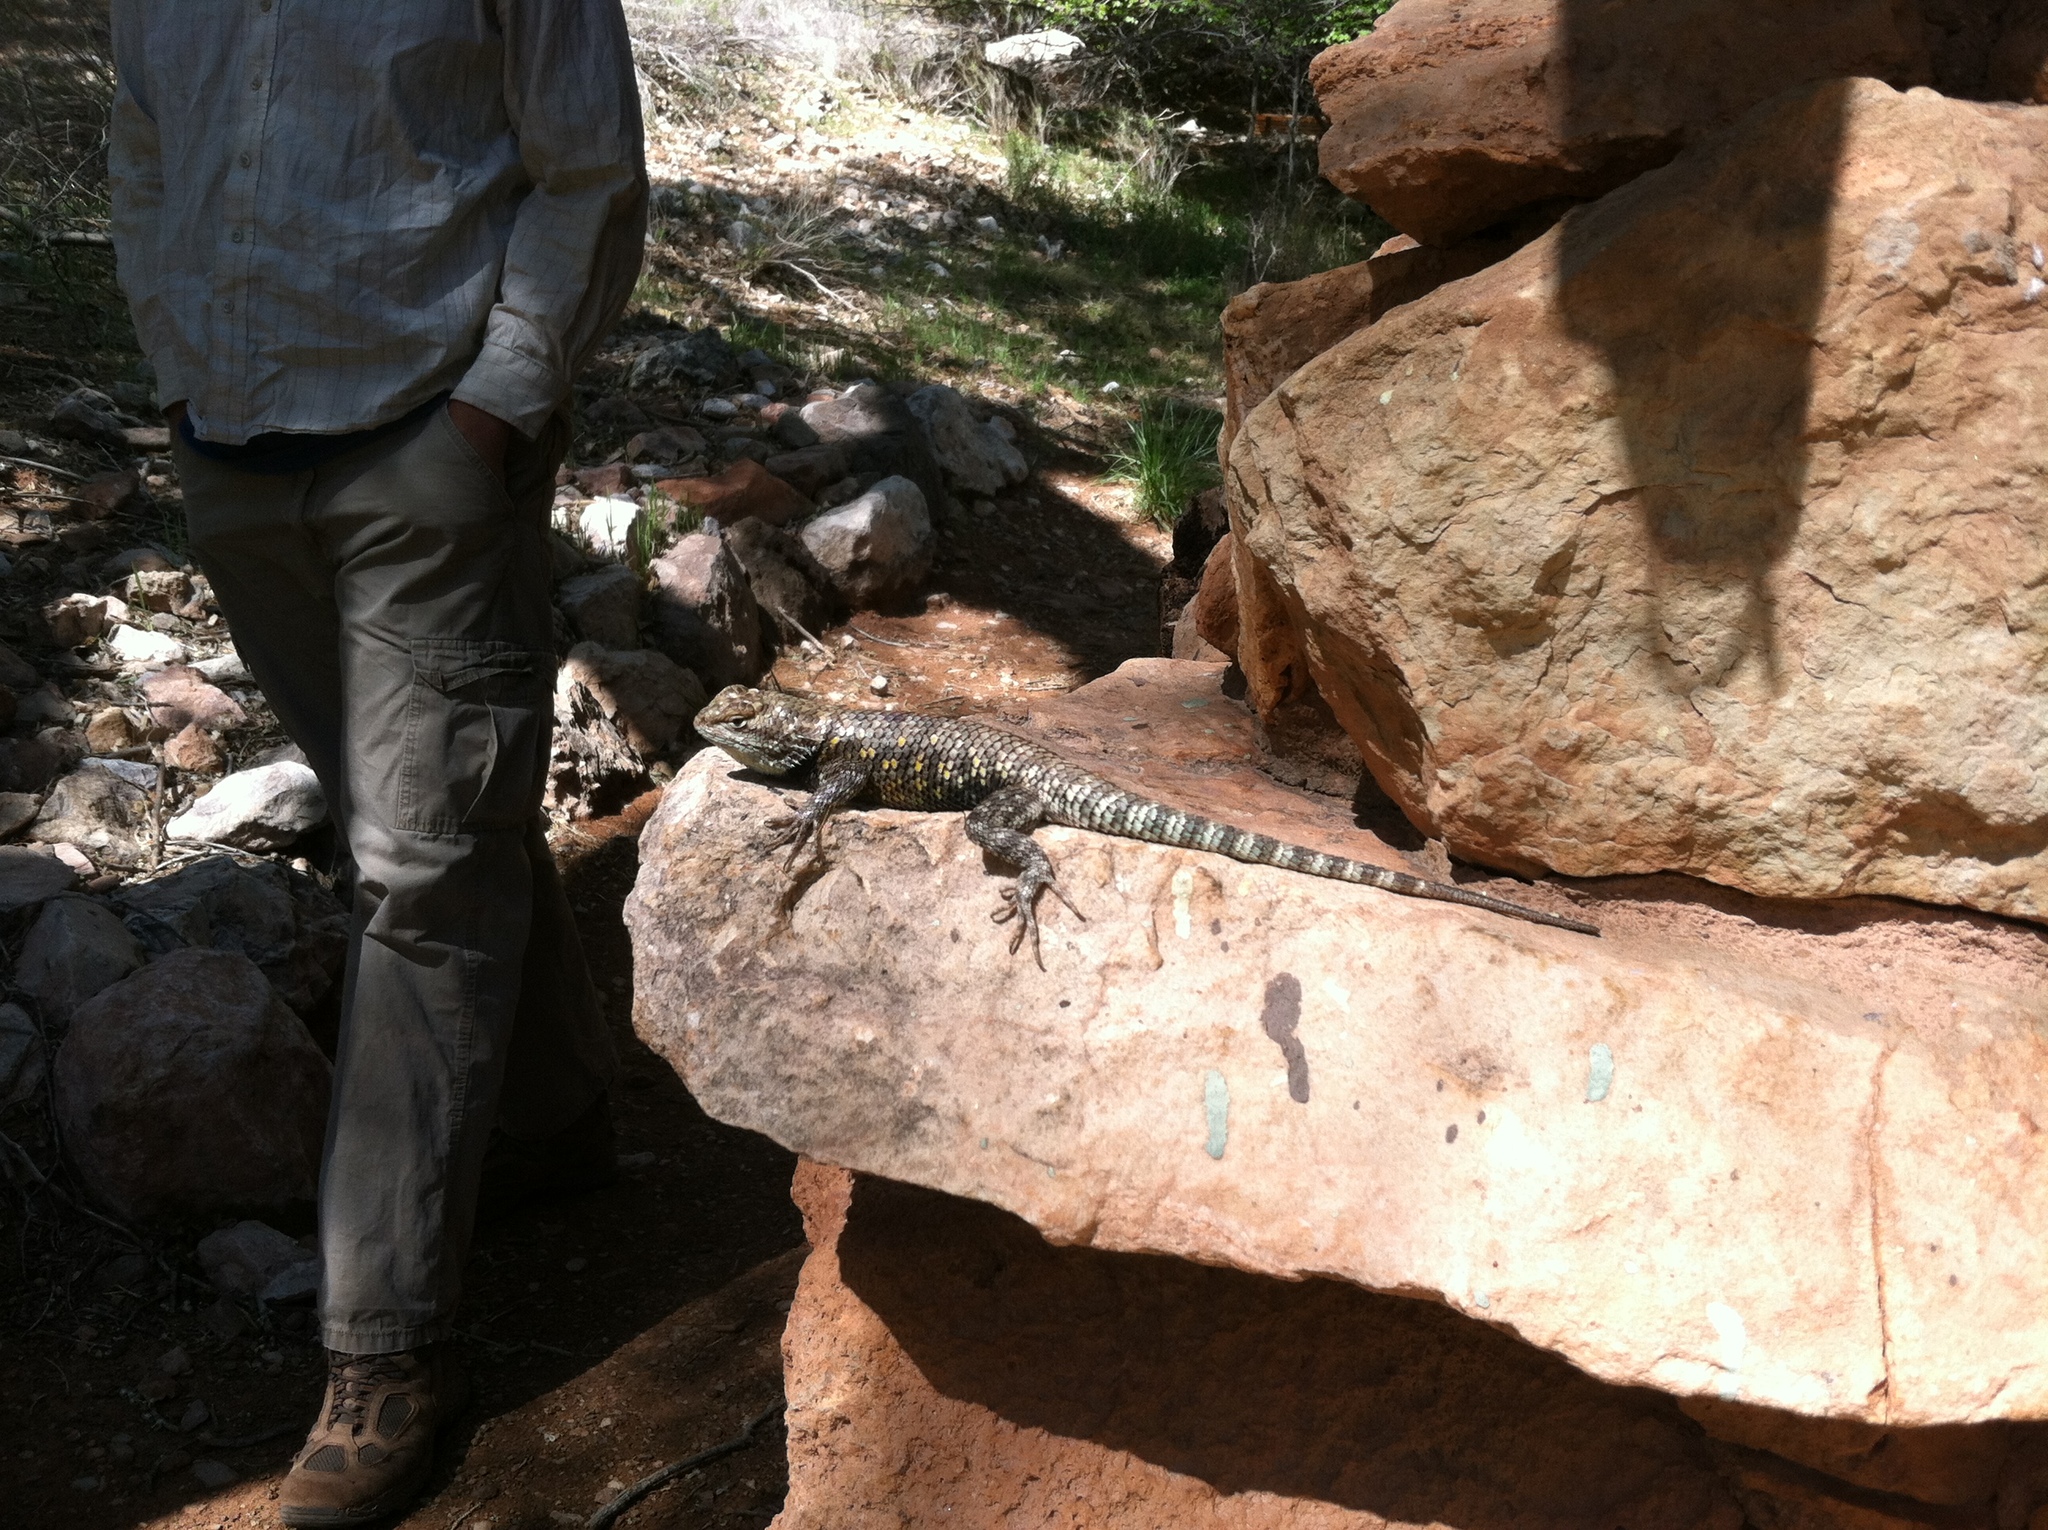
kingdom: Animalia
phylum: Chordata
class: Squamata
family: Phrynosomatidae
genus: Sceloporus
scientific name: Sceloporus magister
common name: Desert spiny lizard
